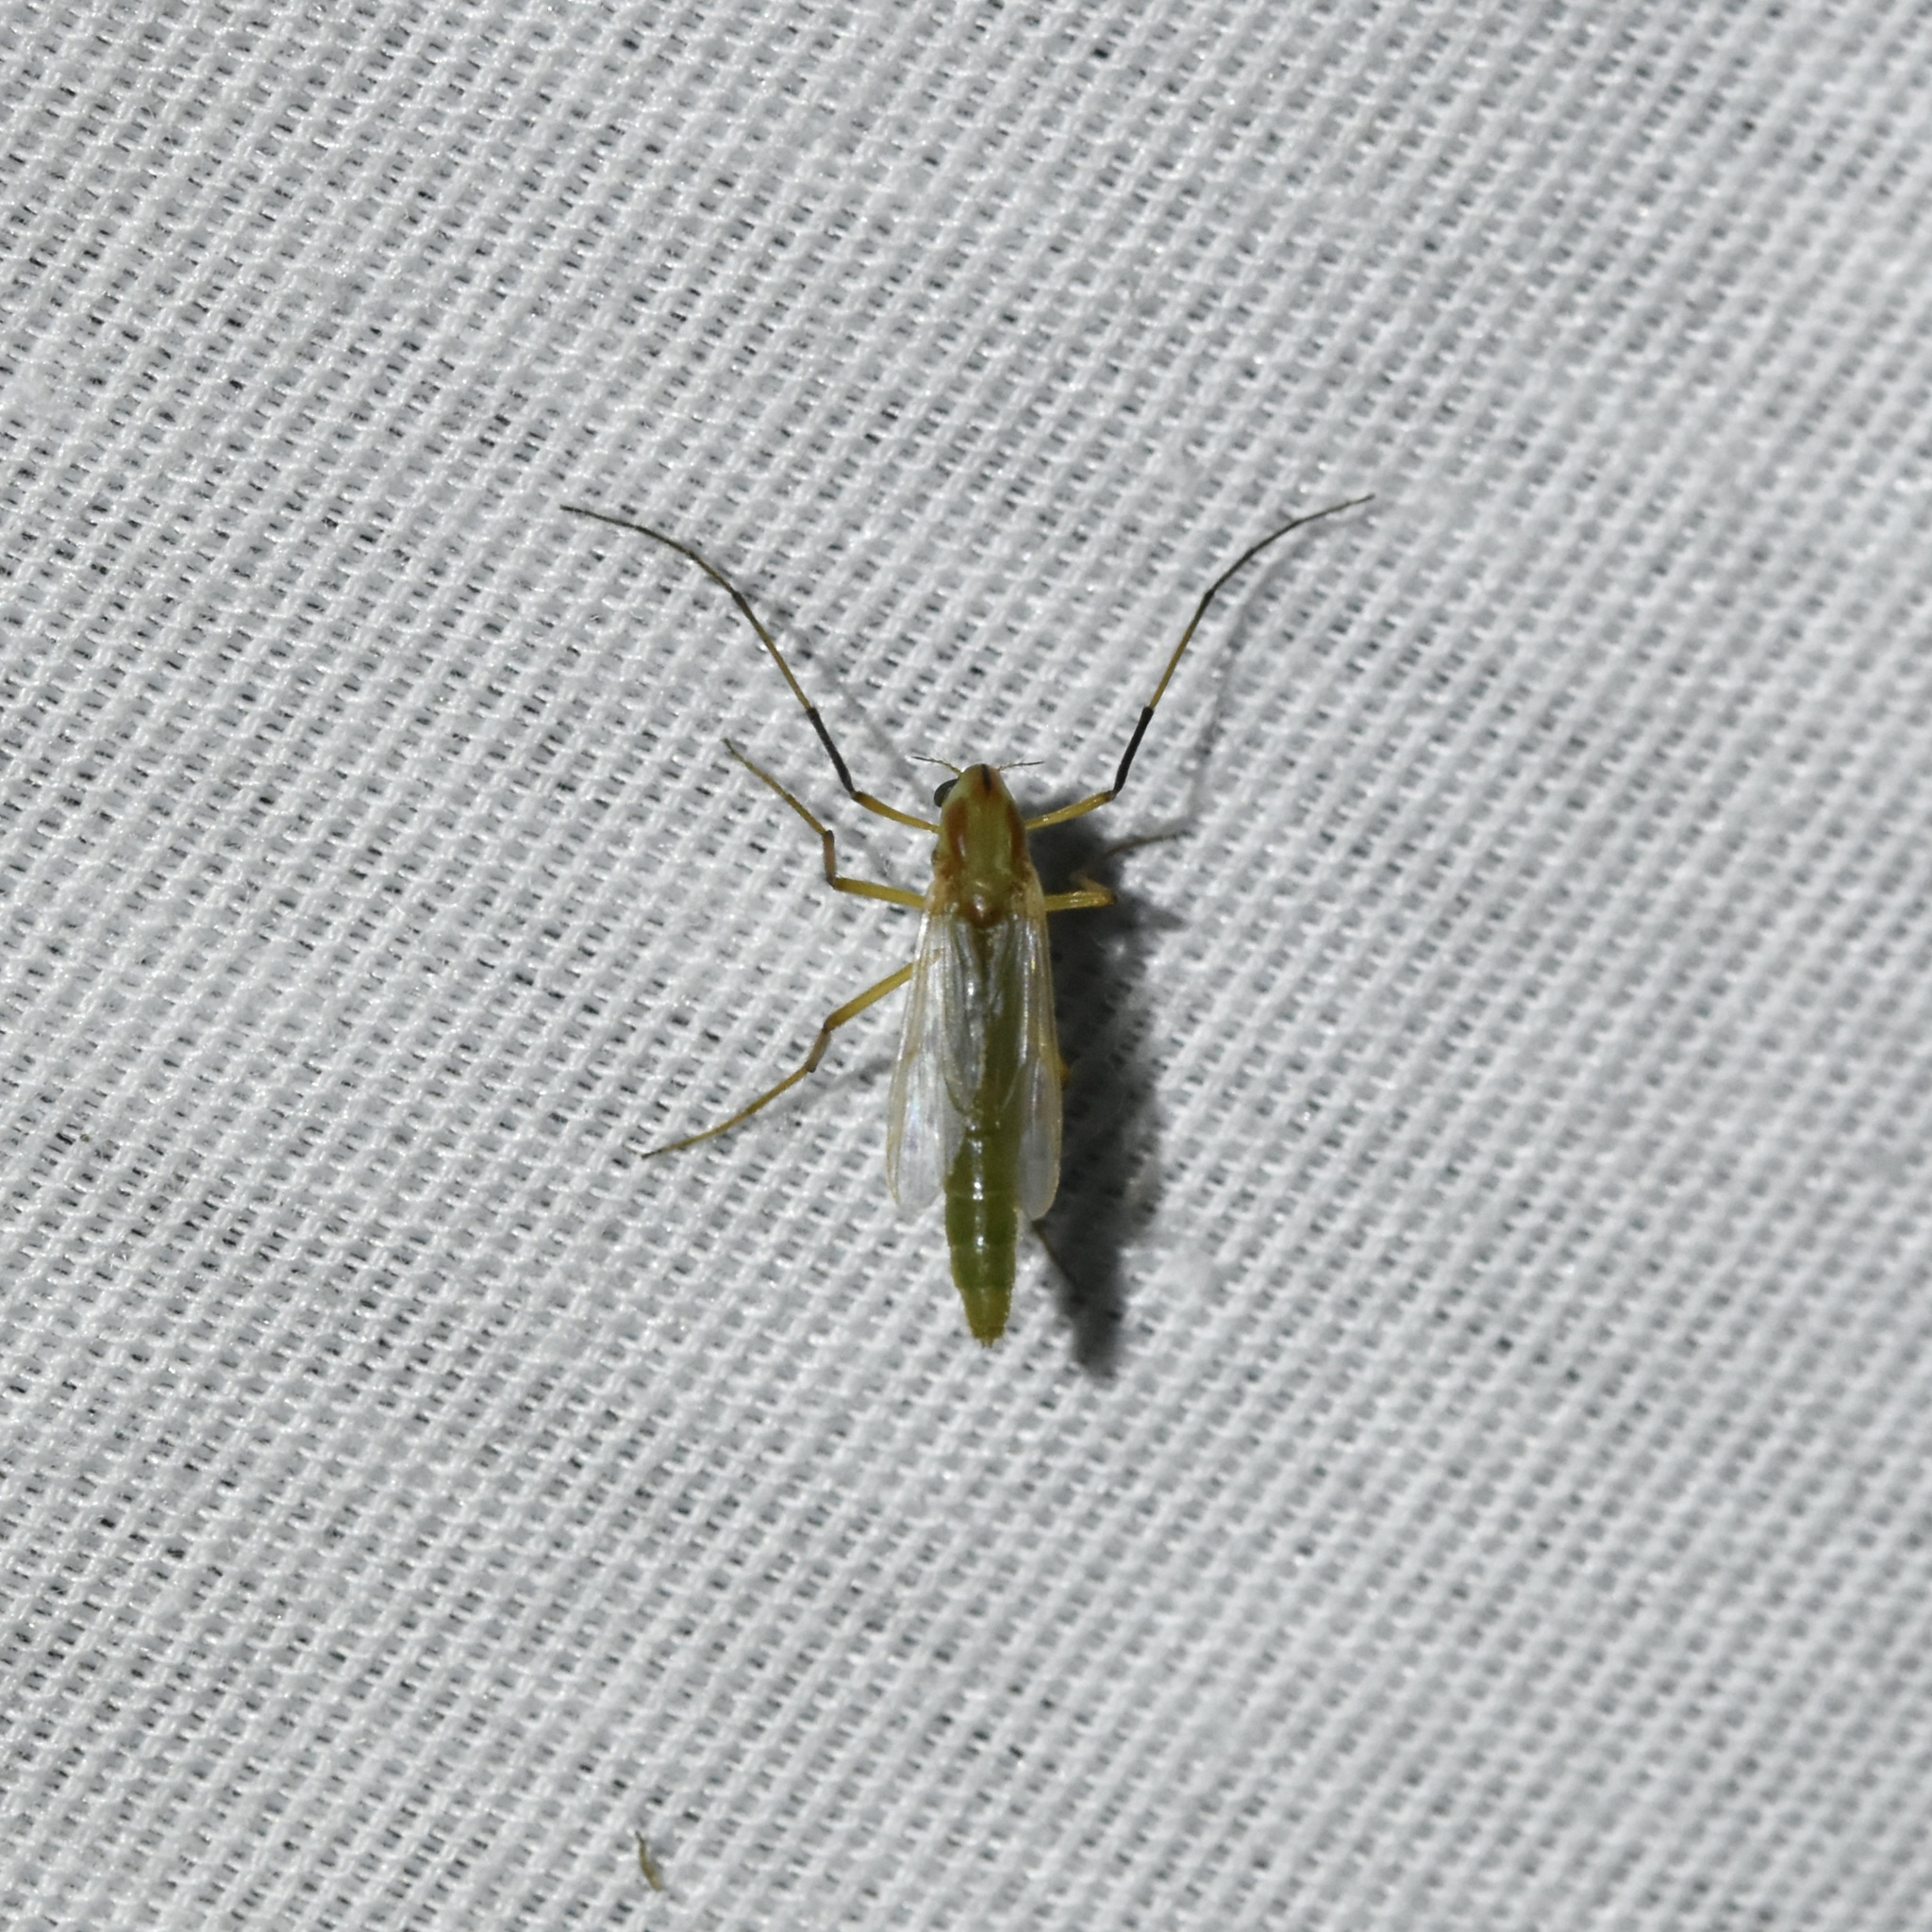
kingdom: Animalia
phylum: Arthropoda
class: Insecta
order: Diptera
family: Chironomidae
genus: Axarus
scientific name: Axarus
